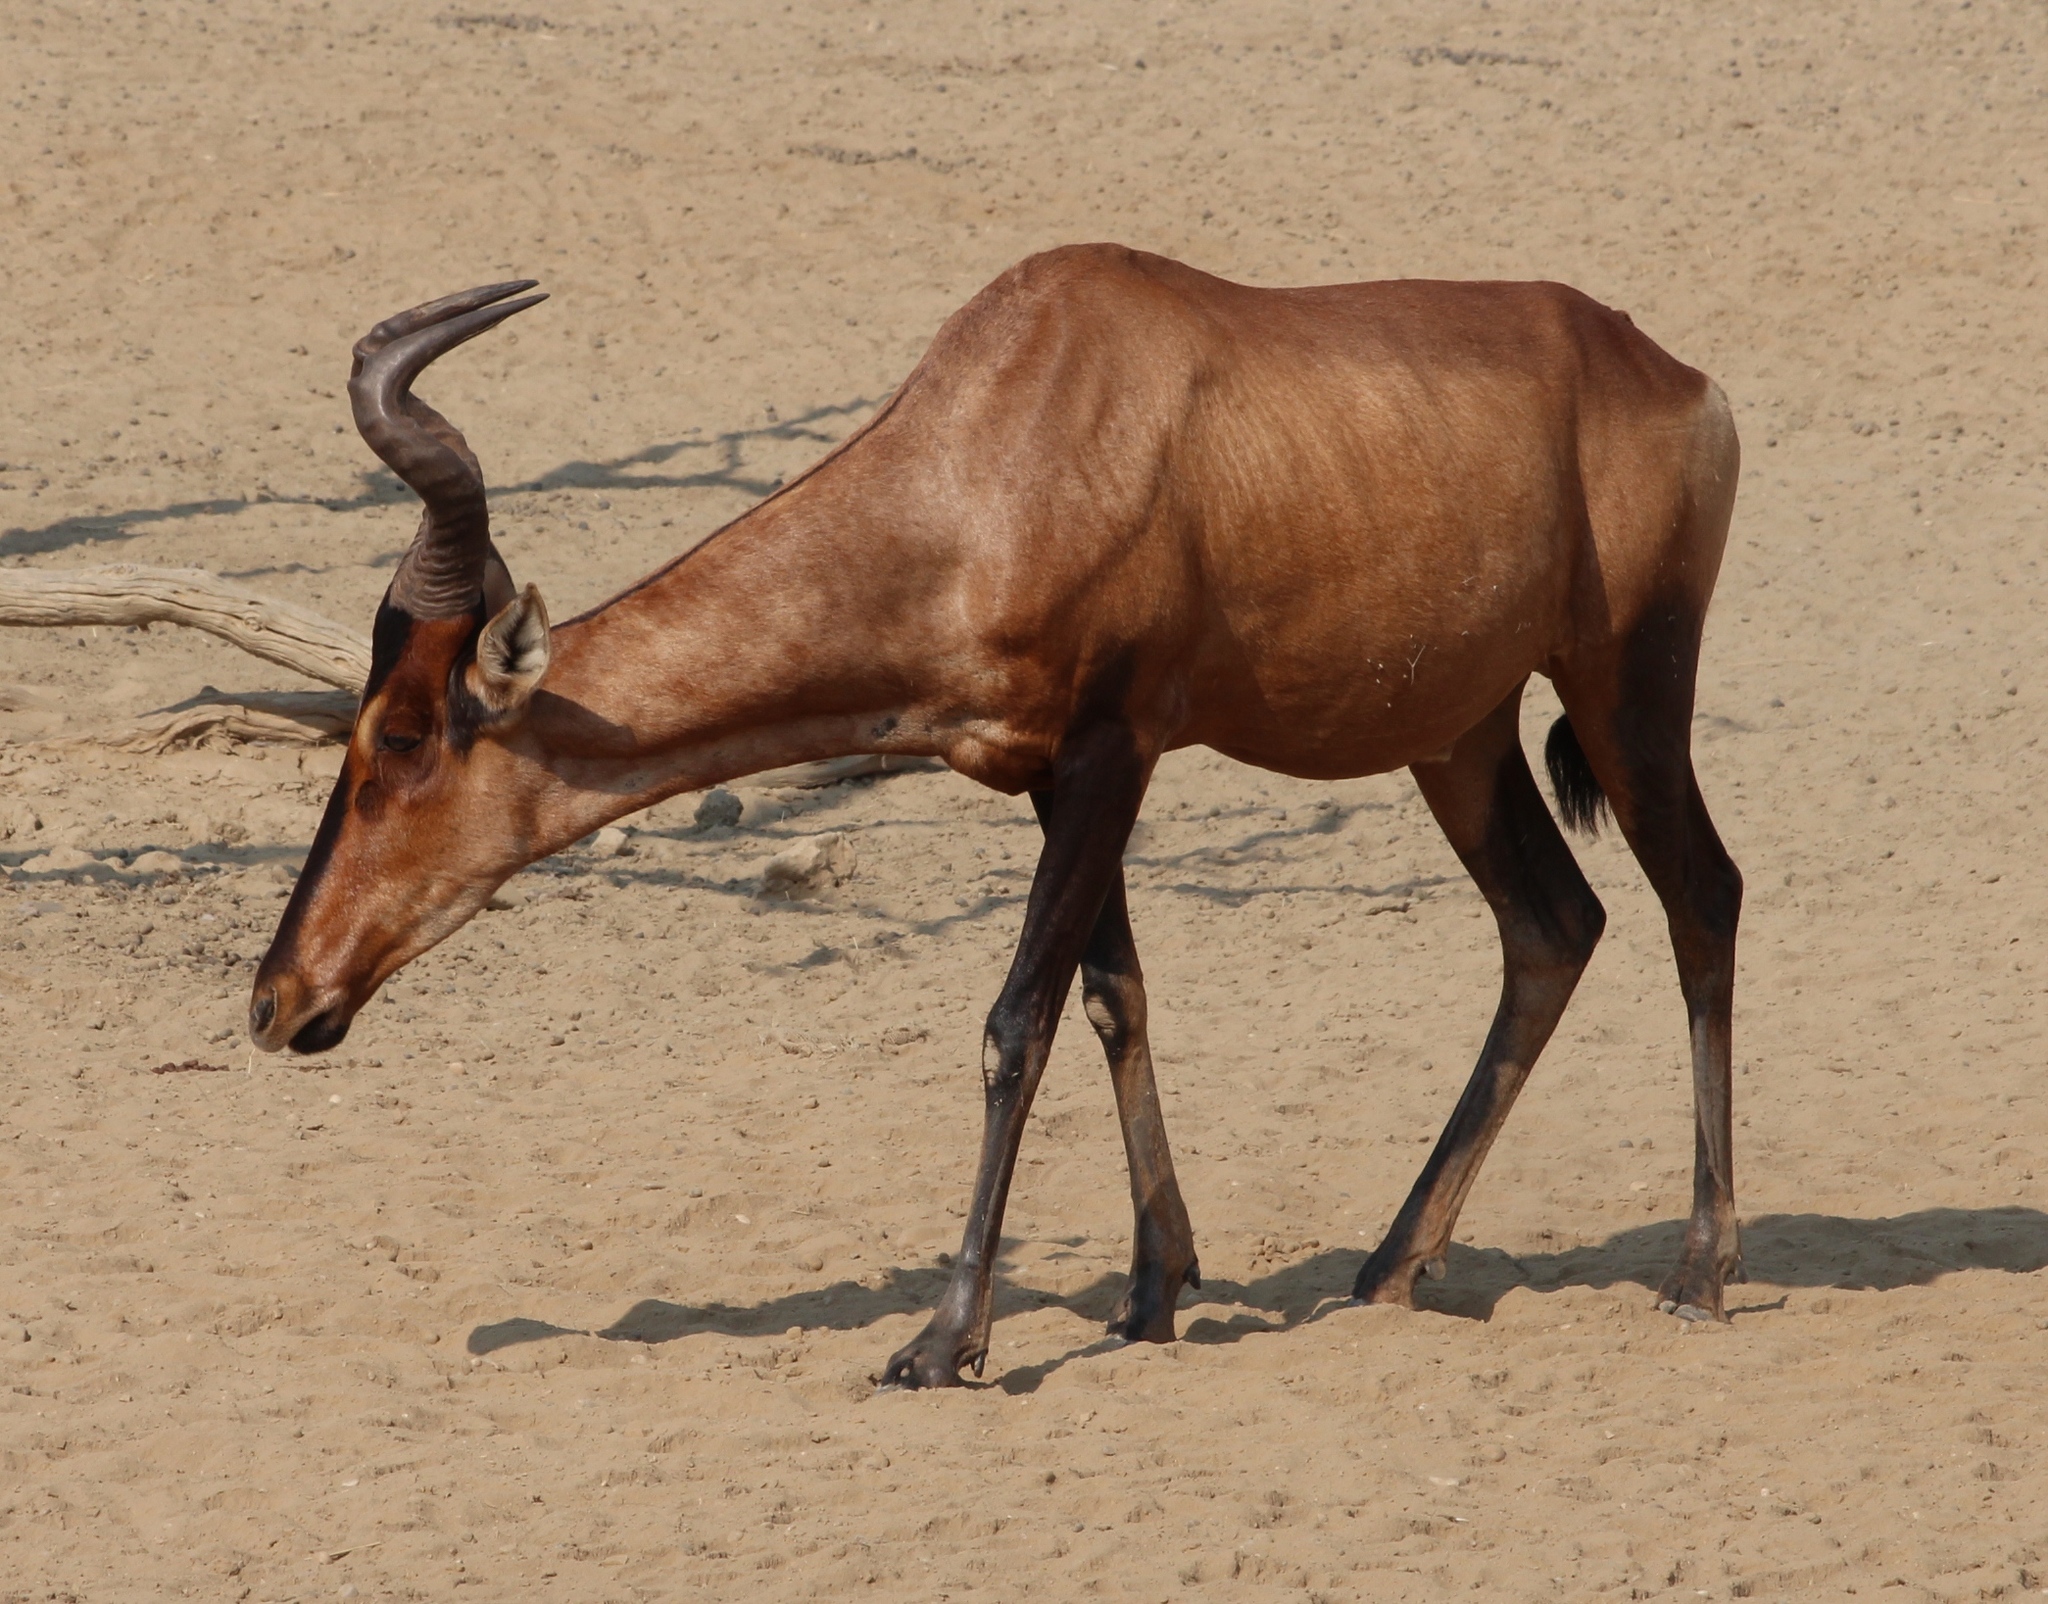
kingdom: Animalia
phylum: Chordata
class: Mammalia
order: Artiodactyla
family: Bovidae
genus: Alcelaphus
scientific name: Alcelaphus caama
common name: Red hartebeest
